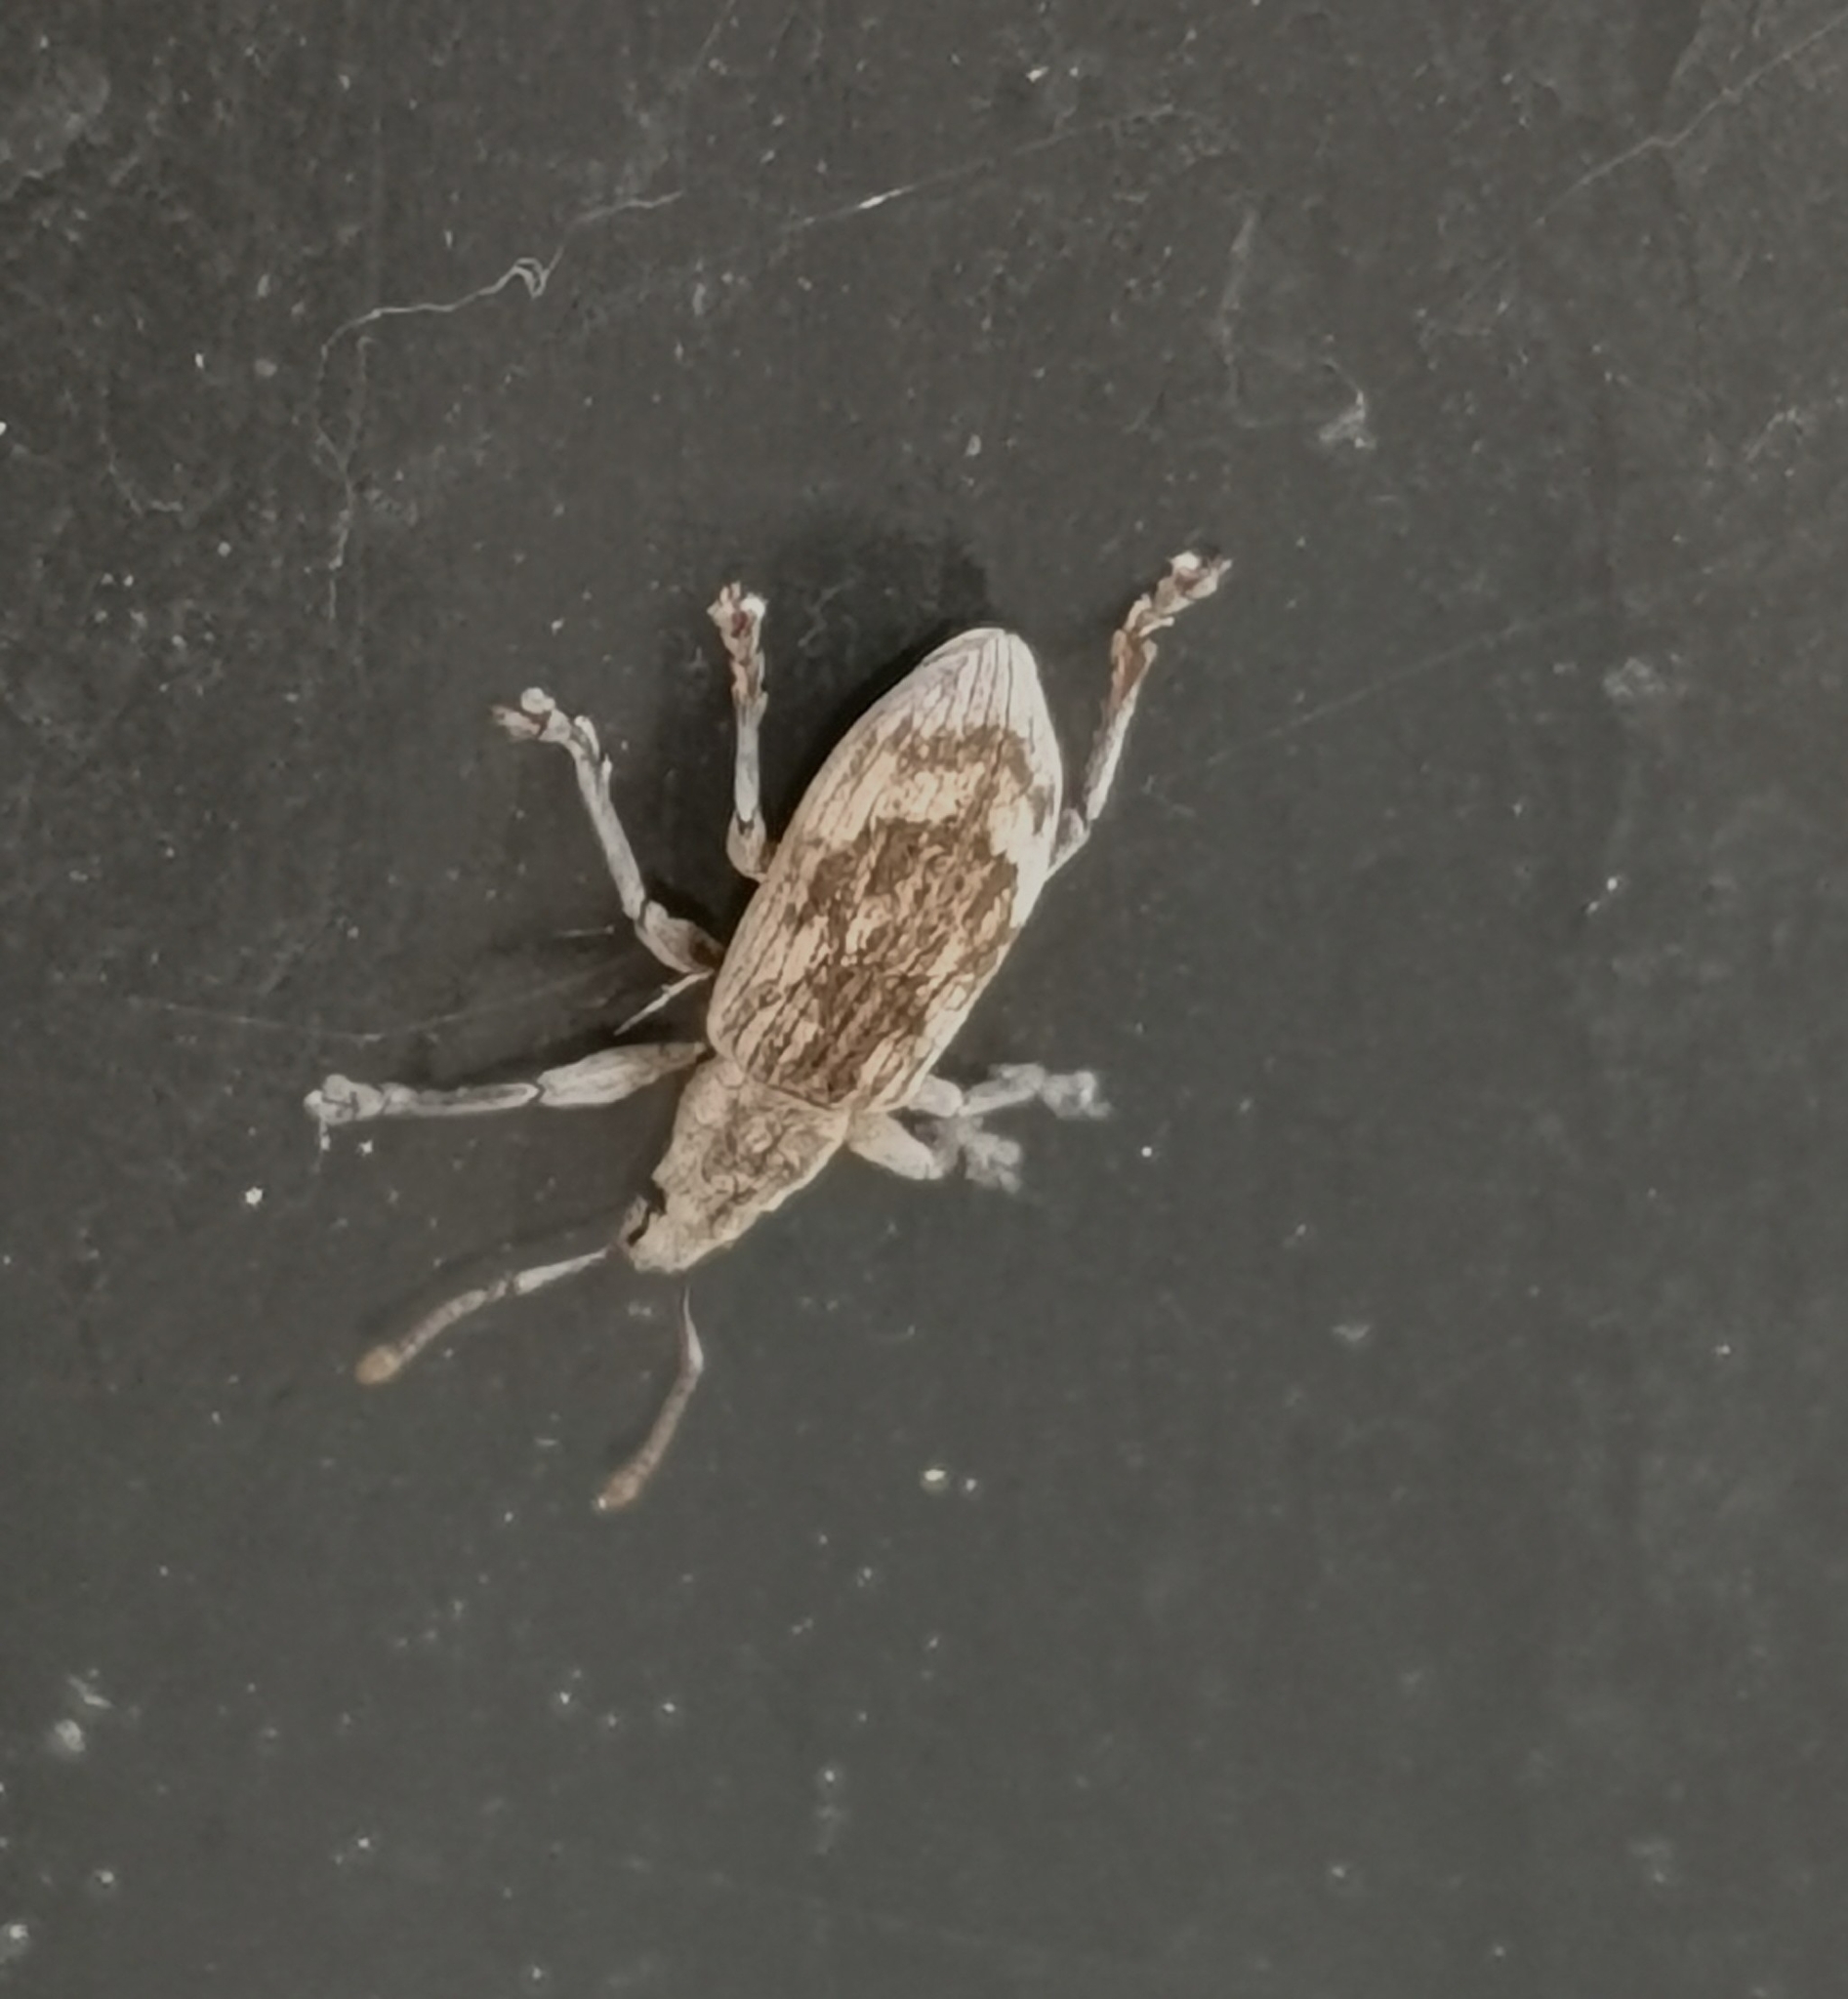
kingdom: Animalia
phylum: Arthropoda
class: Insecta
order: Coleoptera
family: Curculionidae
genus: Polydrusus
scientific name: Polydrusus tereticollis
